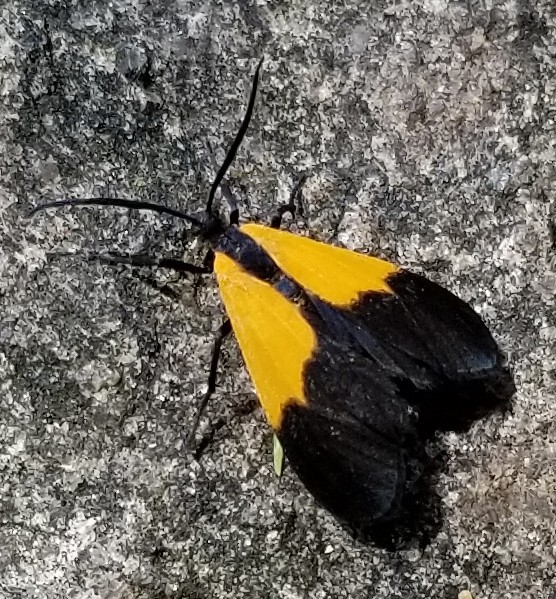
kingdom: Animalia
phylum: Arthropoda
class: Insecta
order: Lepidoptera
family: Erebidae
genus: Lycomorpha
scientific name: Lycomorpha pholus
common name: Black-and-yellow lichen moth
